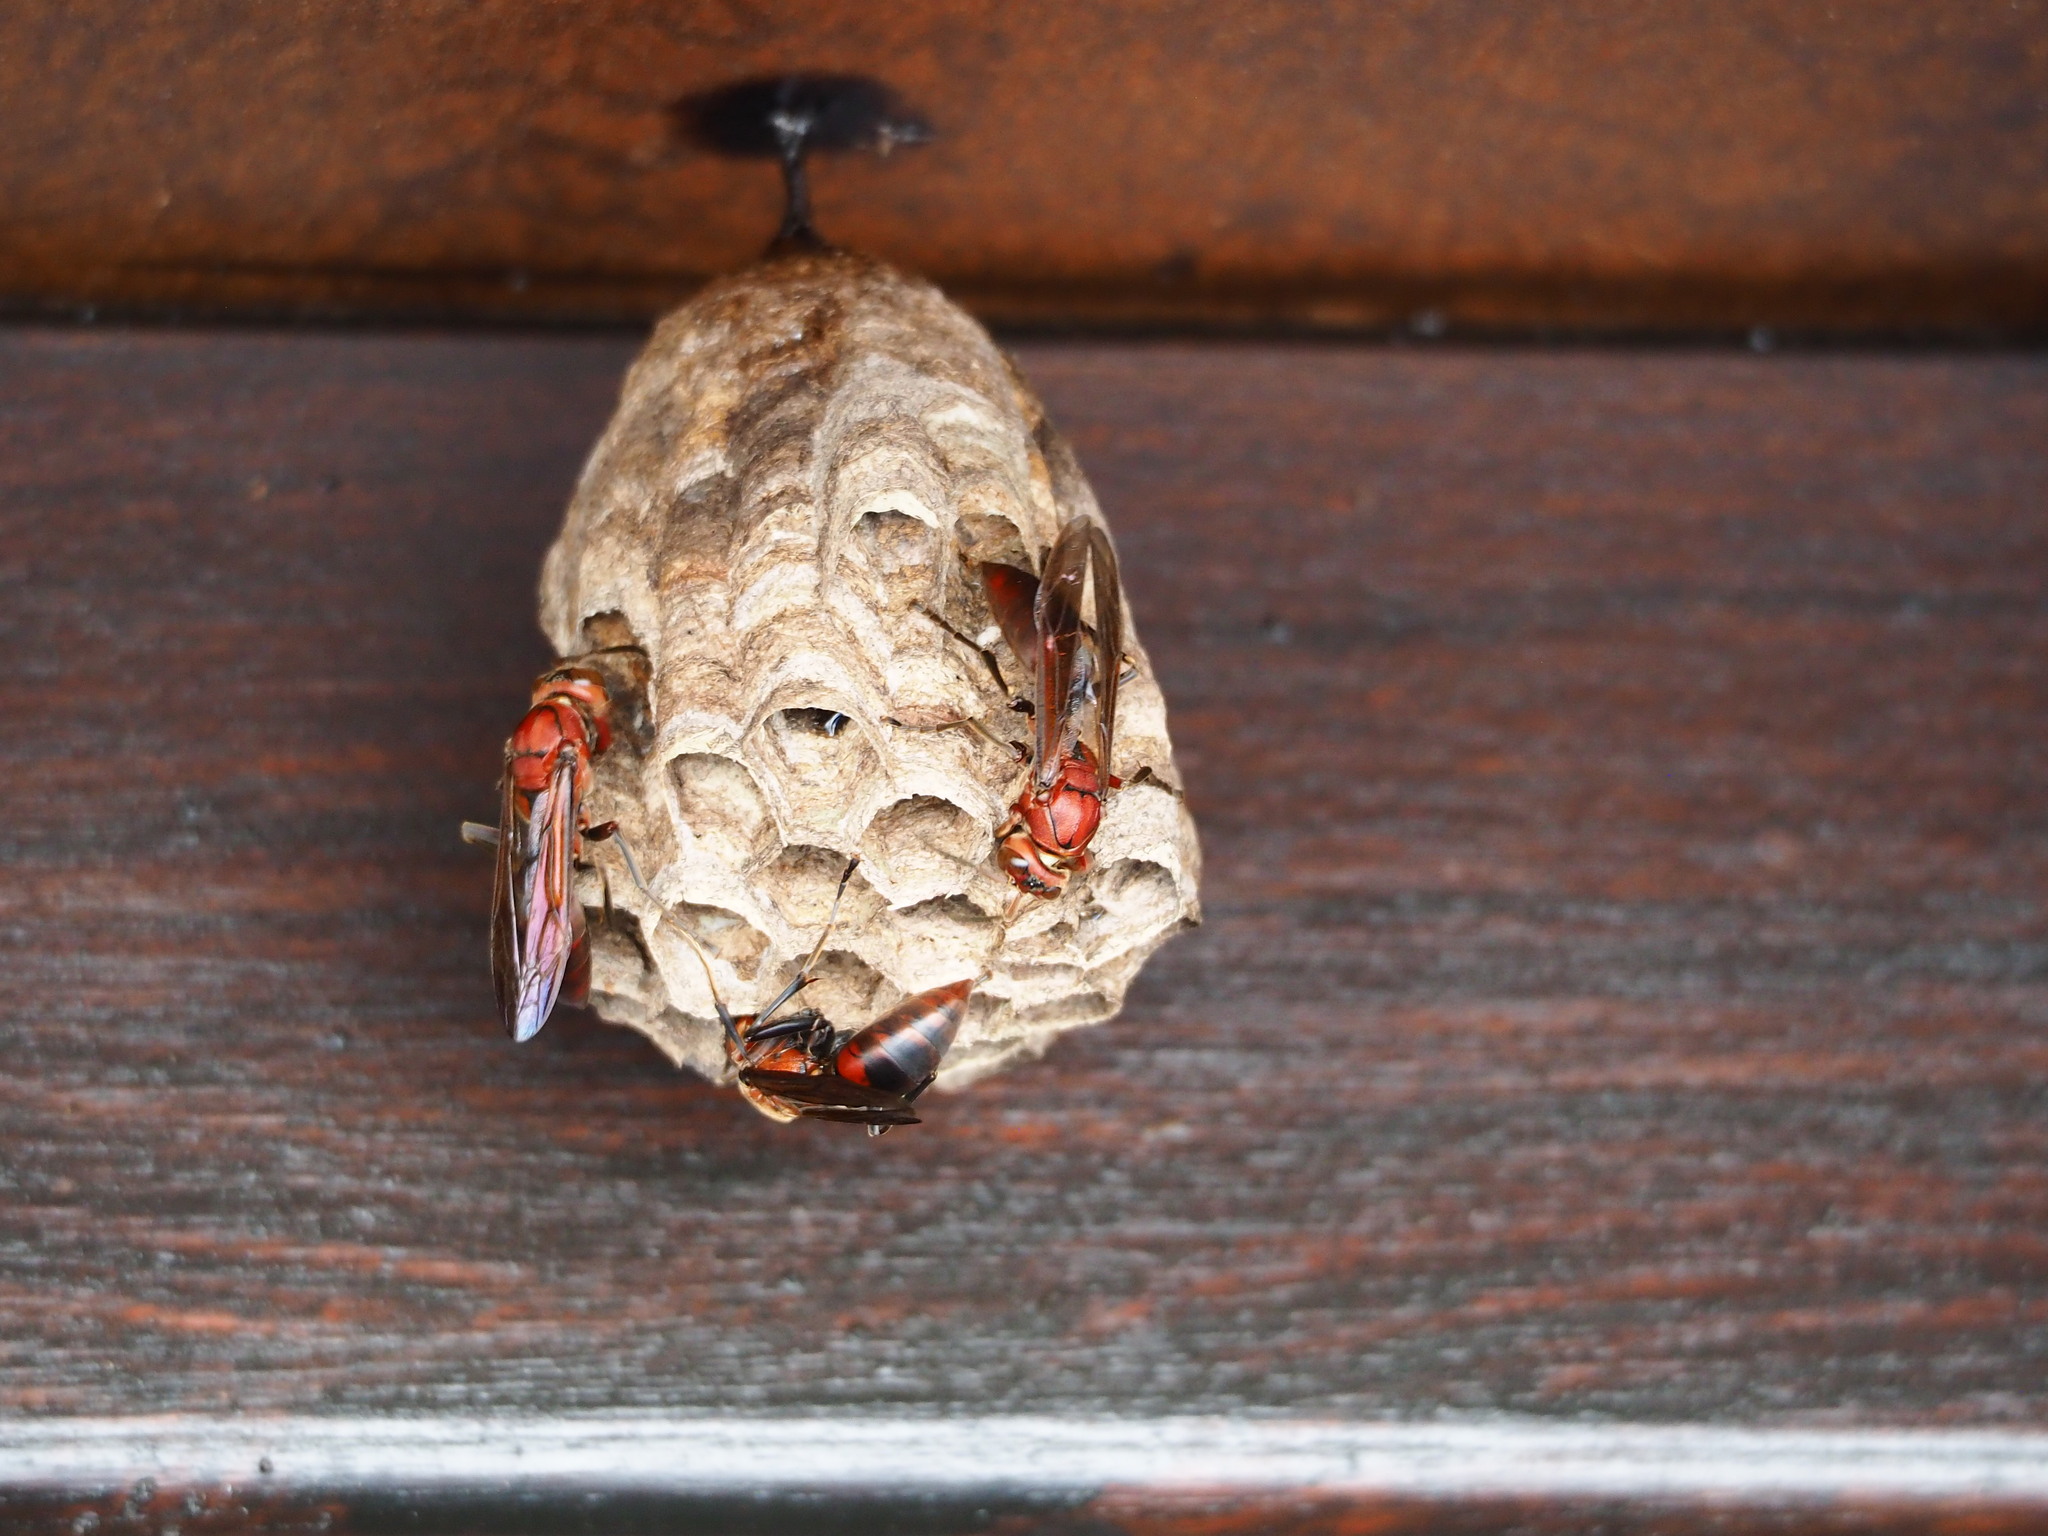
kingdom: Animalia
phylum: Arthropoda
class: Insecta
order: Hymenoptera
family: Eumenidae
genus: Polistes
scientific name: Polistes tenebricosus
